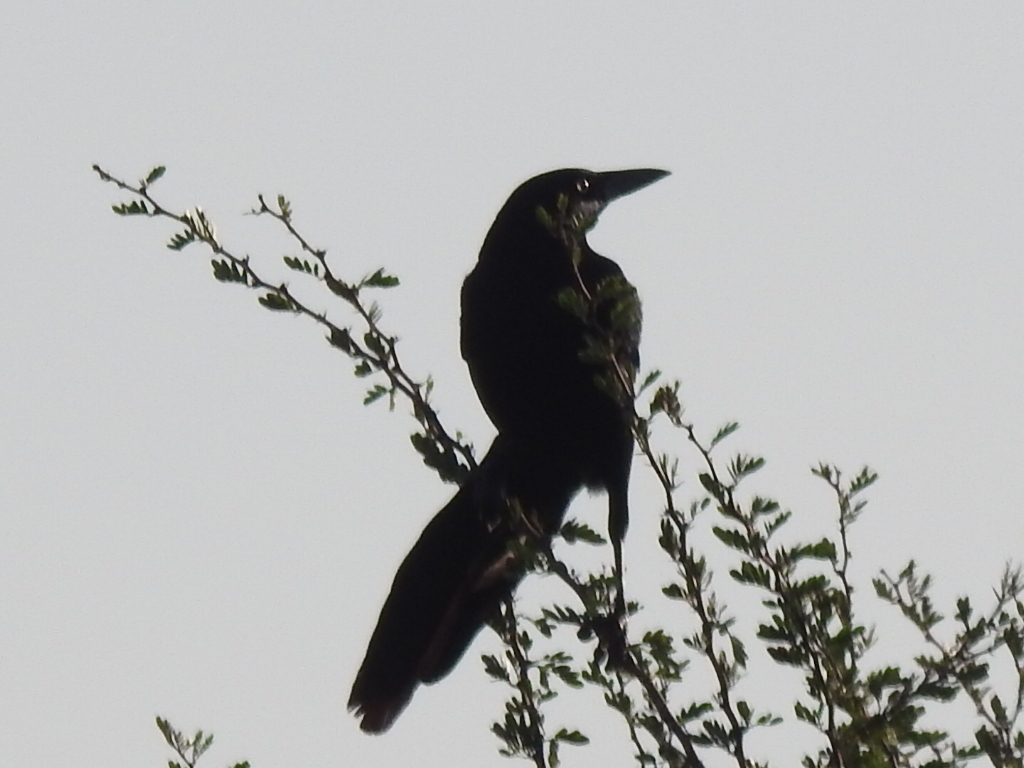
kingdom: Animalia
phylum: Chordata
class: Aves
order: Passeriformes
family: Icteridae
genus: Quiscalus
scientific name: Quiscalus mexicanus
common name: Great-tailed grackle
